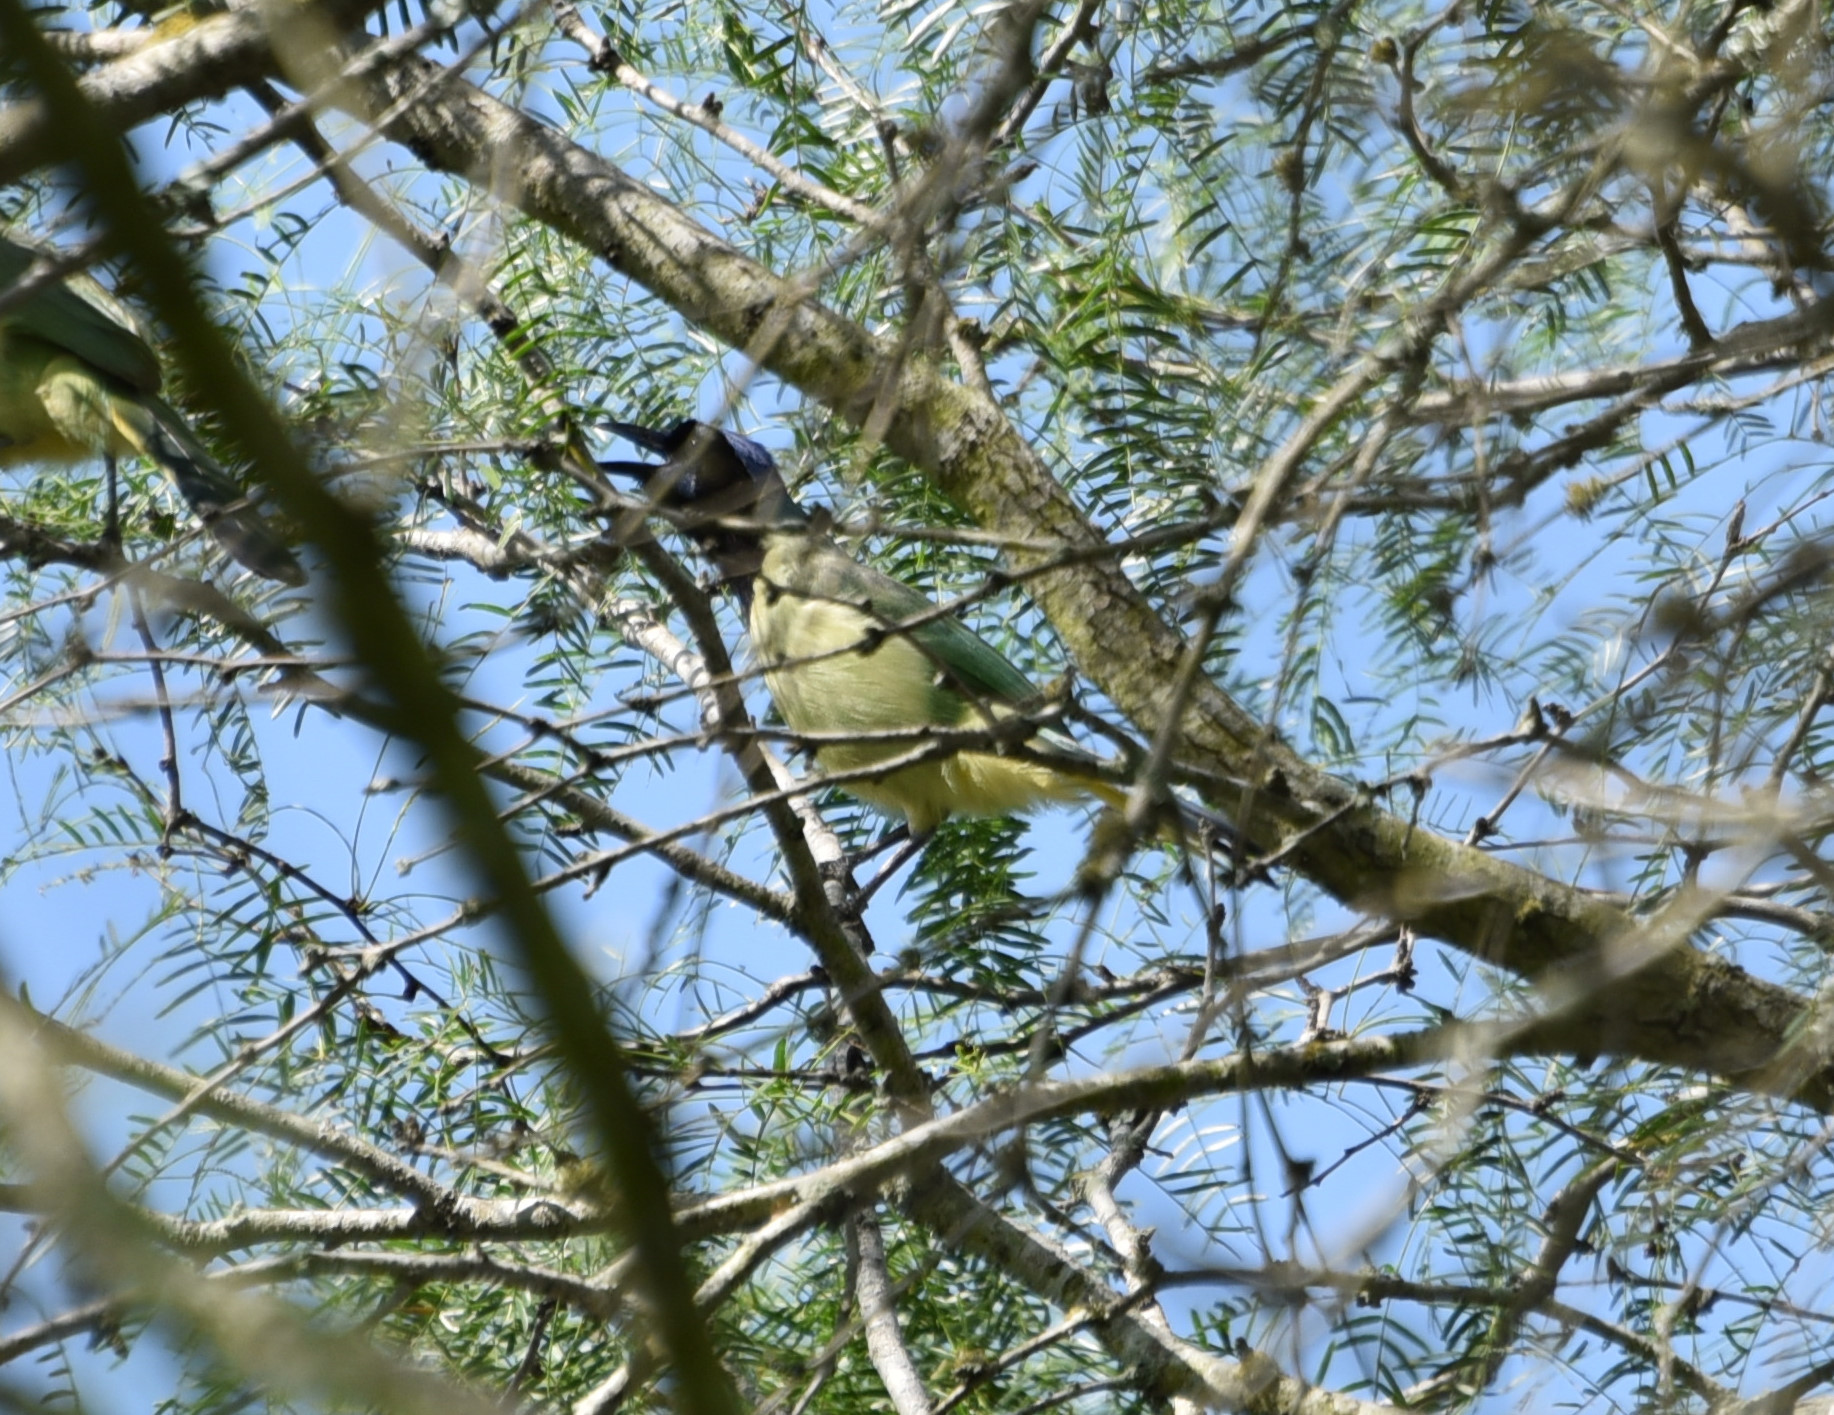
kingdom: Animalia
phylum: Chordata
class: Aves
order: Passeriformes
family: Corvidae
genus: Cyanocorax
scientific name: Cyanocorax yncas
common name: Green jay
